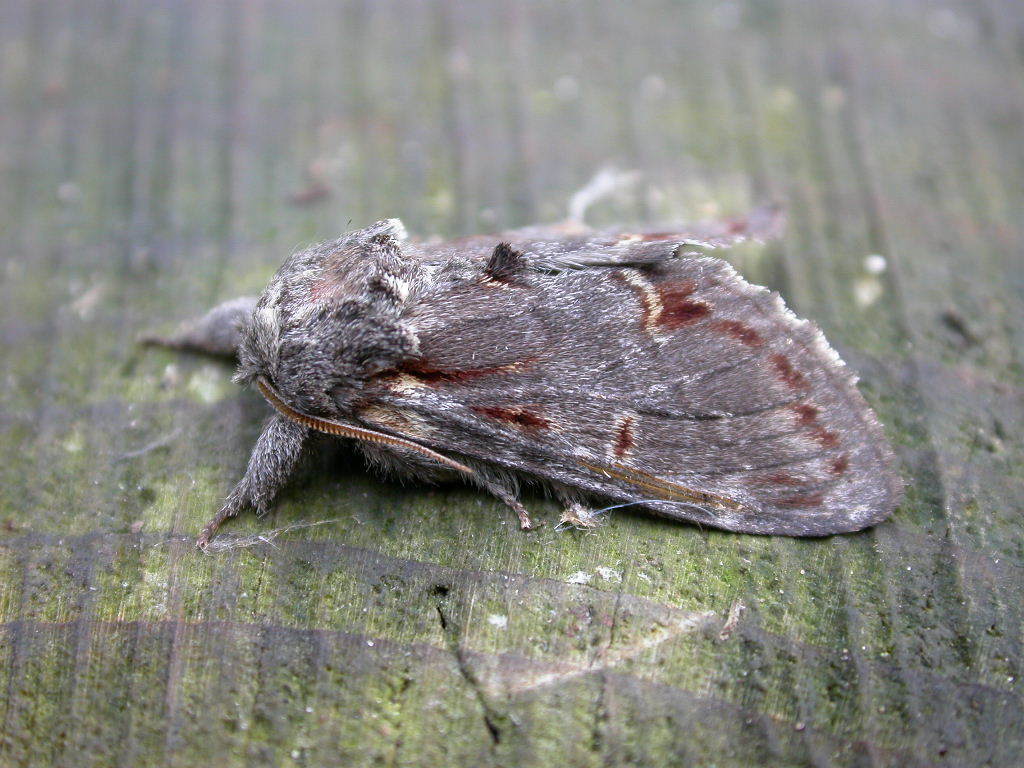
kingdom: Animalia
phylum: Arthropoda
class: Insecta
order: Lepidoptera
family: Notodontidae
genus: Notodonta
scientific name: Notodonta dromedarius
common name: Iron prominent
